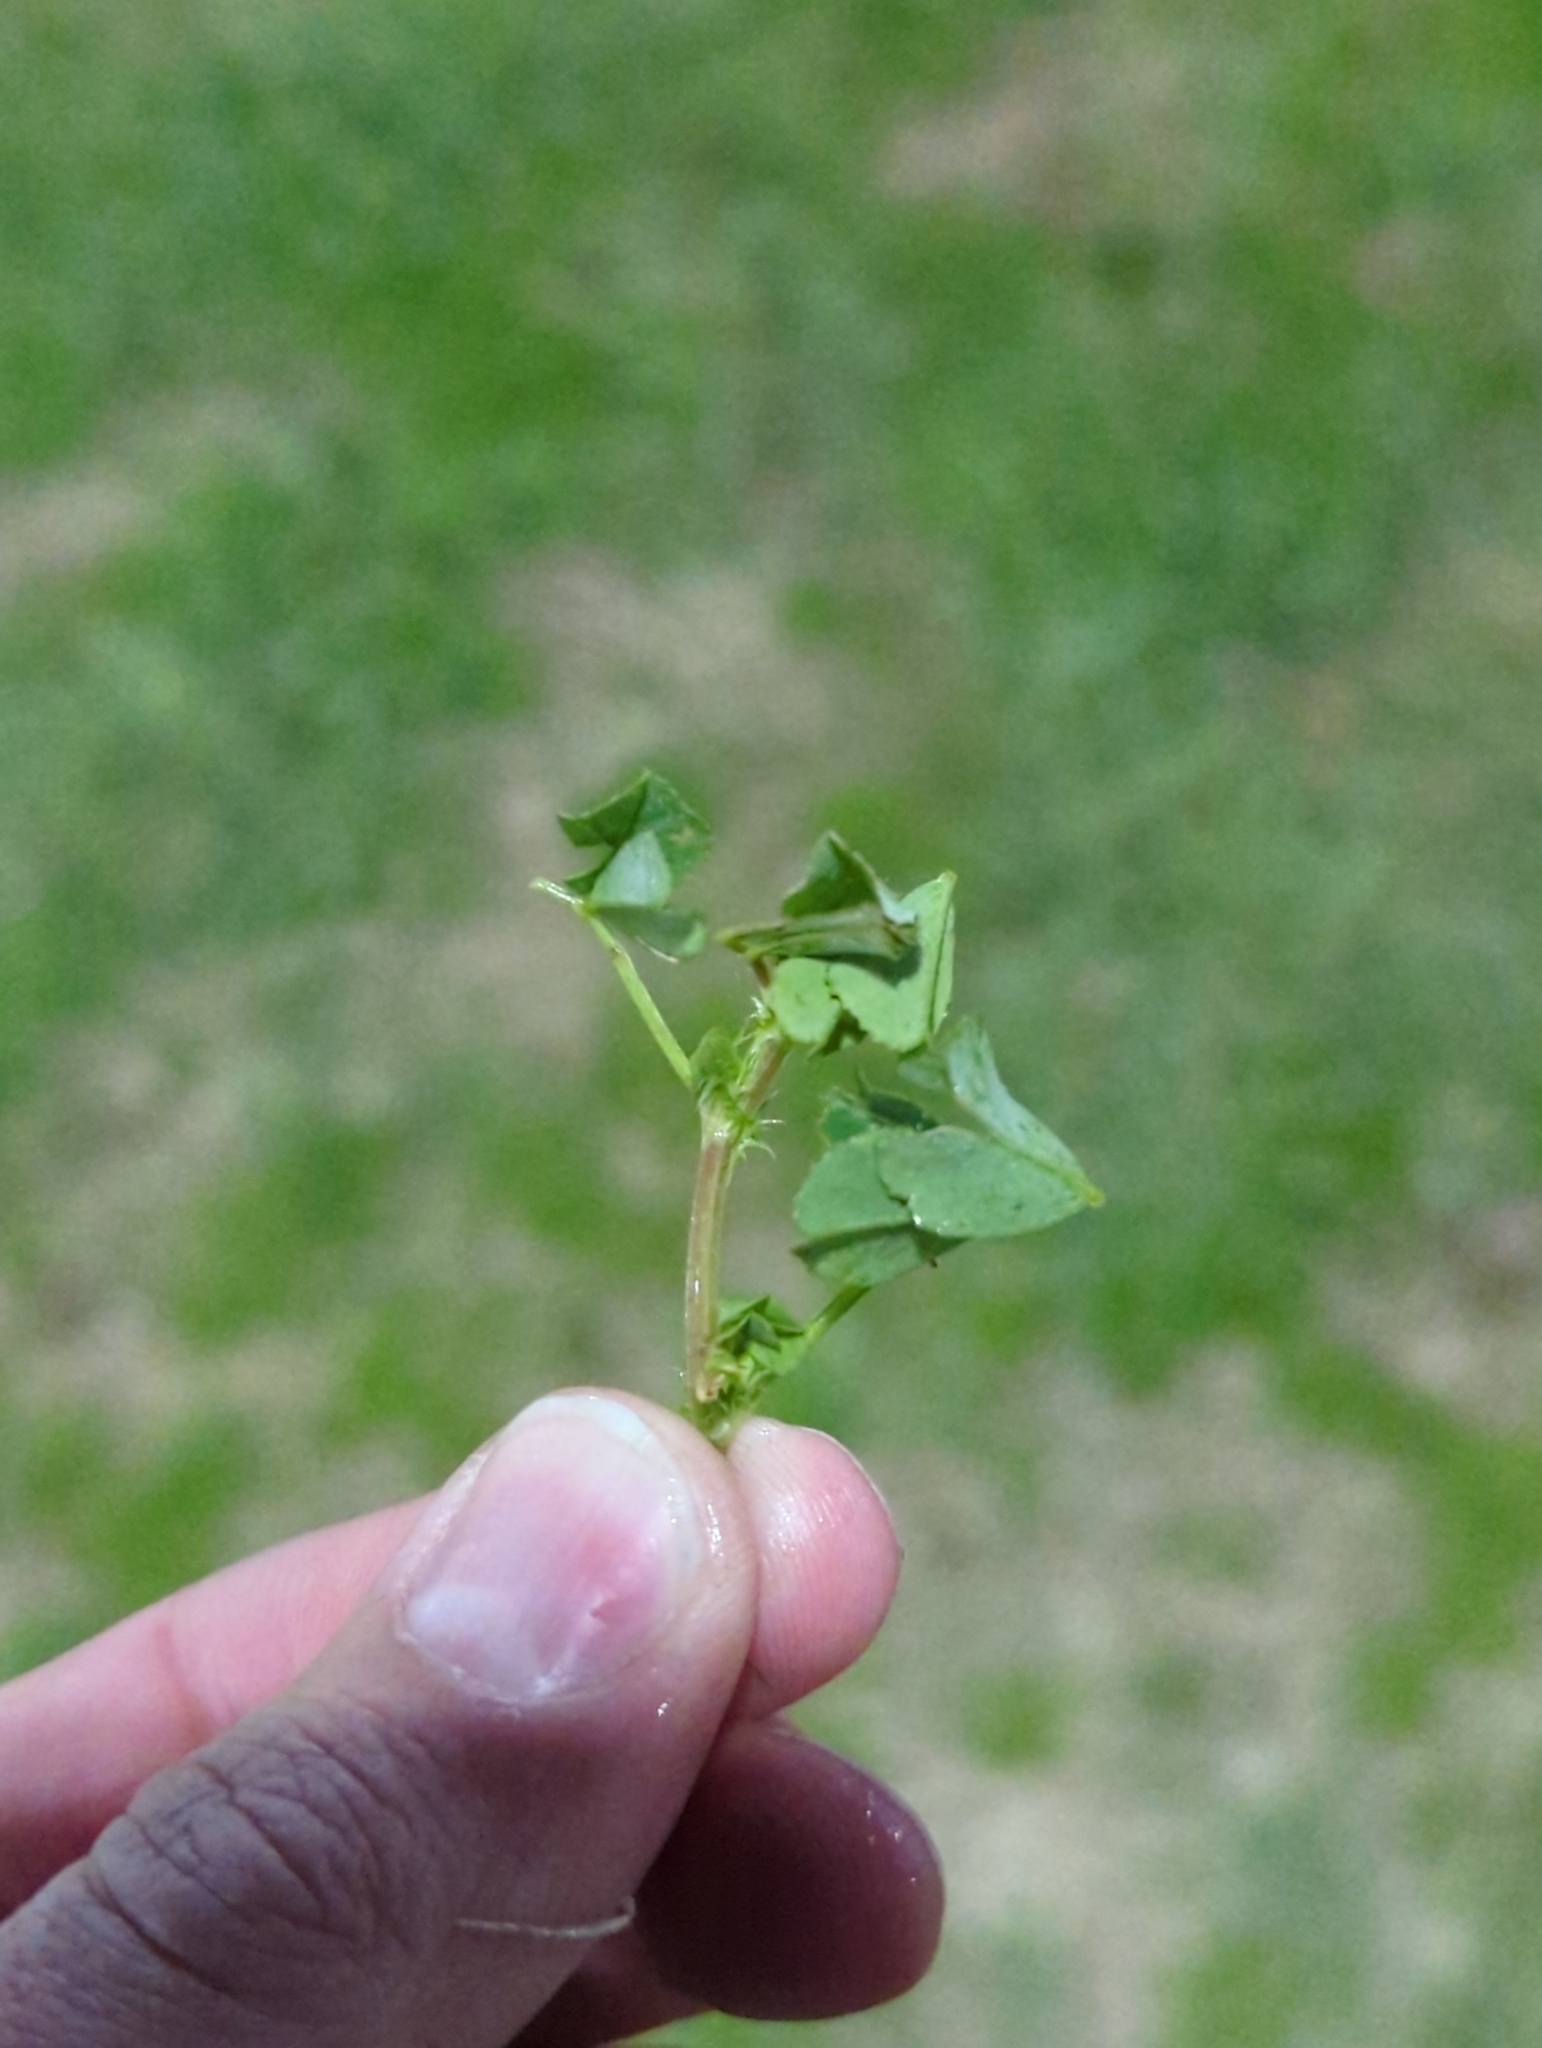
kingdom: Plantae
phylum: Tracheophyta
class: Magnoliopsida
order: Fabales
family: Fabaceae
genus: Medicago
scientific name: Medicago polymorpha
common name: Burclover
